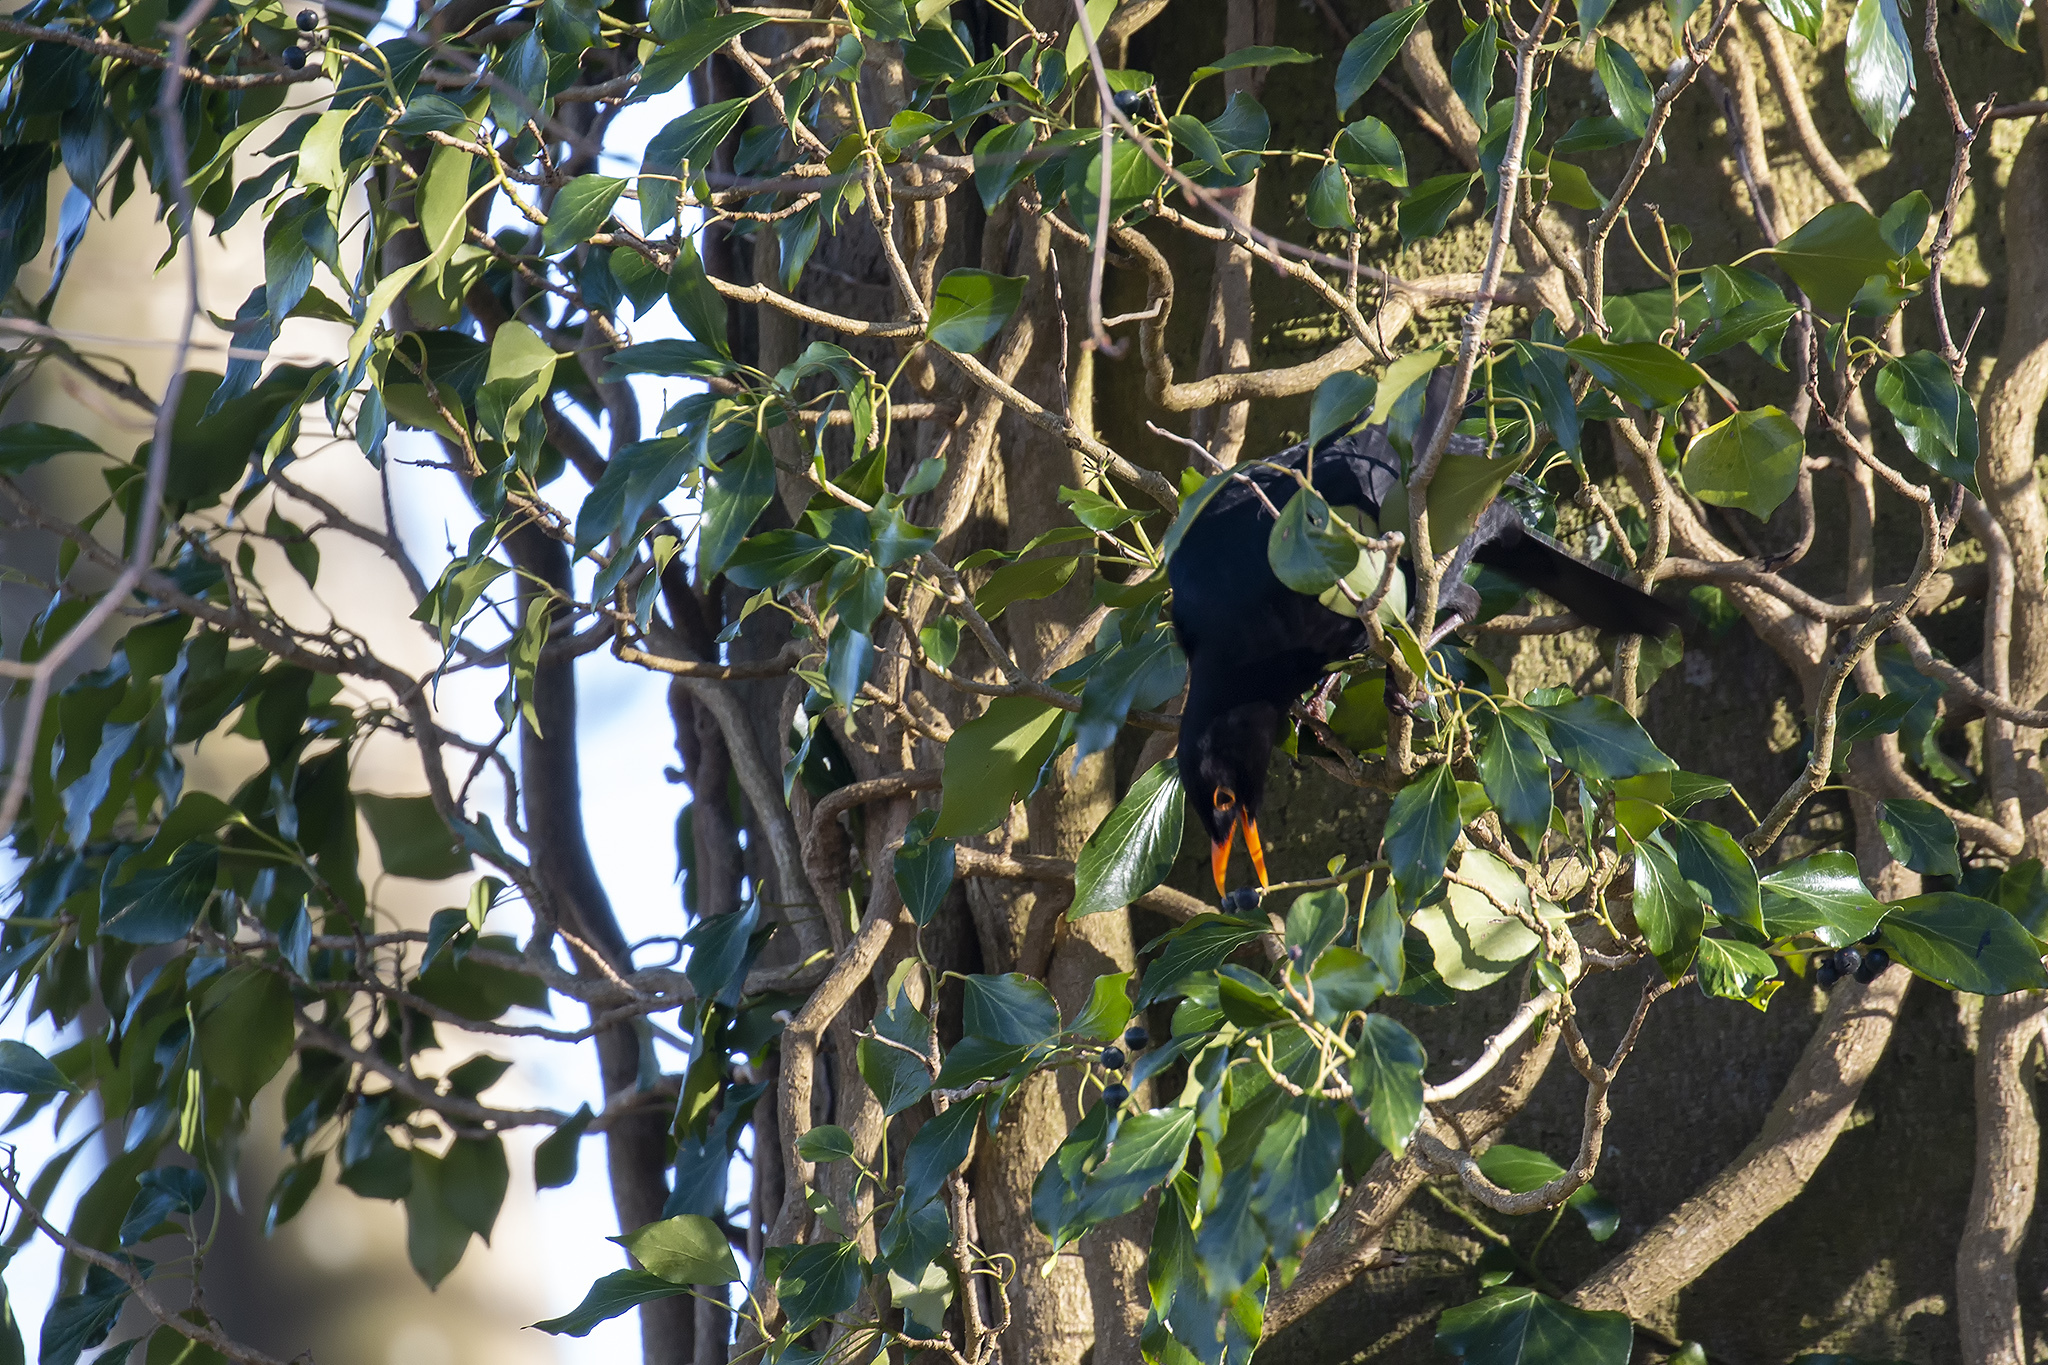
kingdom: Animalia
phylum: Chordata
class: Aves
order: Passeriformes
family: Turdidae
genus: Turdus
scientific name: Turdus merula
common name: Common blackbird
